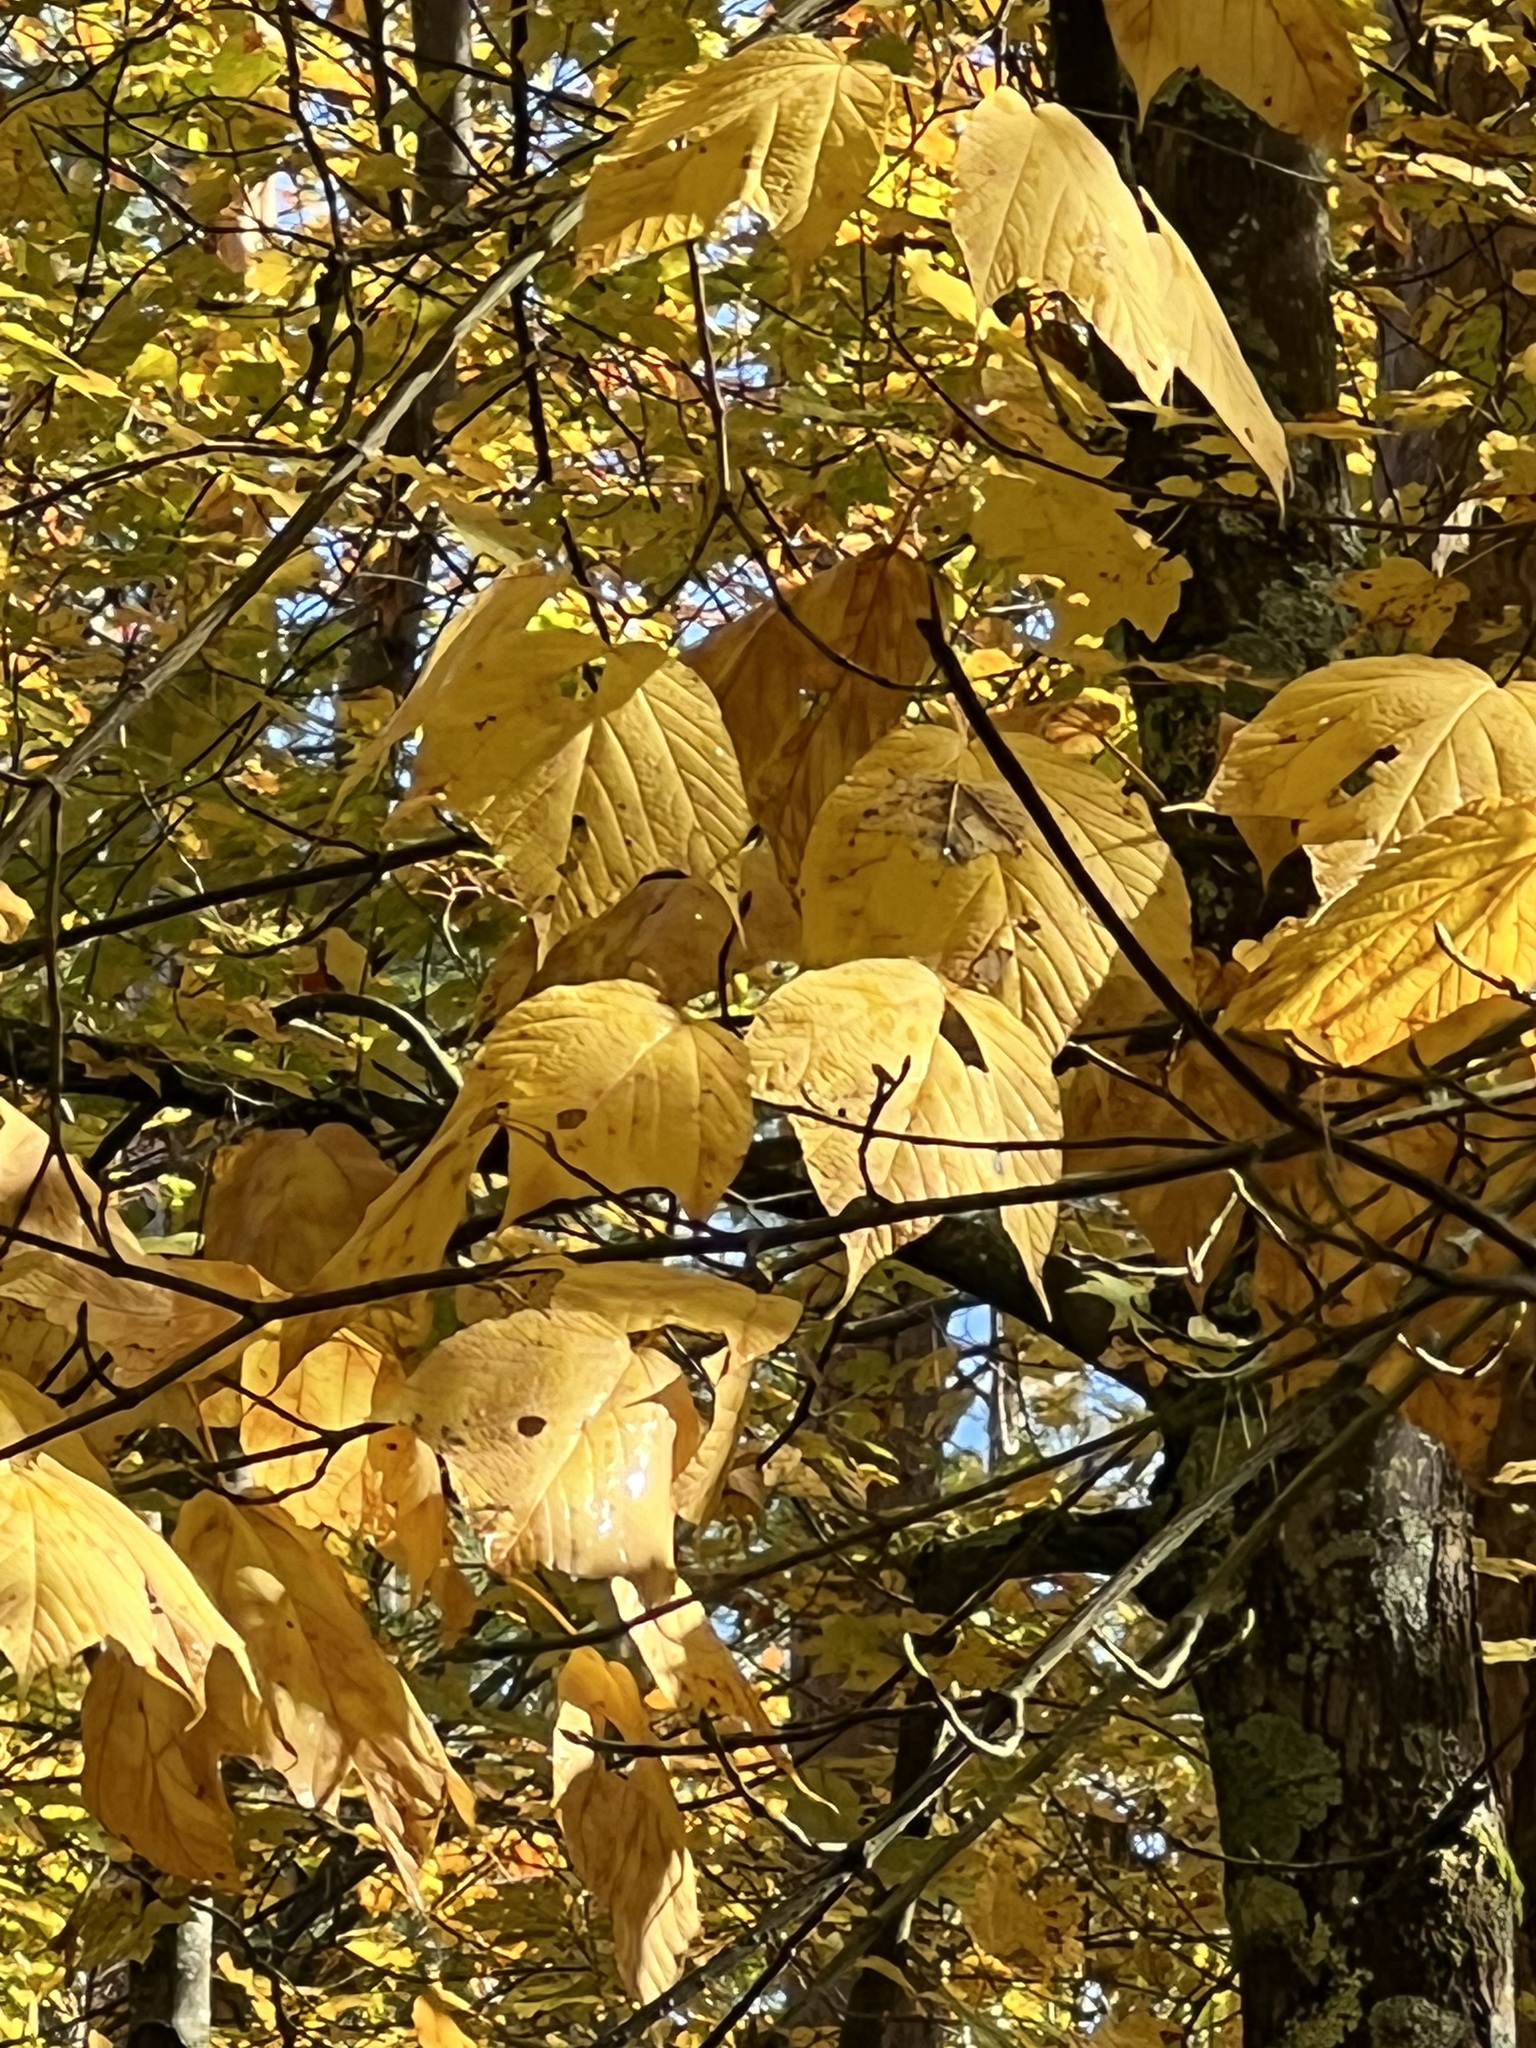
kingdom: Plantae
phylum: Tracheophyta
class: Magnoliopsida
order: Sapindales
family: Sapindaceae
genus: Acer
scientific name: Acer pensylvanicum
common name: Moosewood
